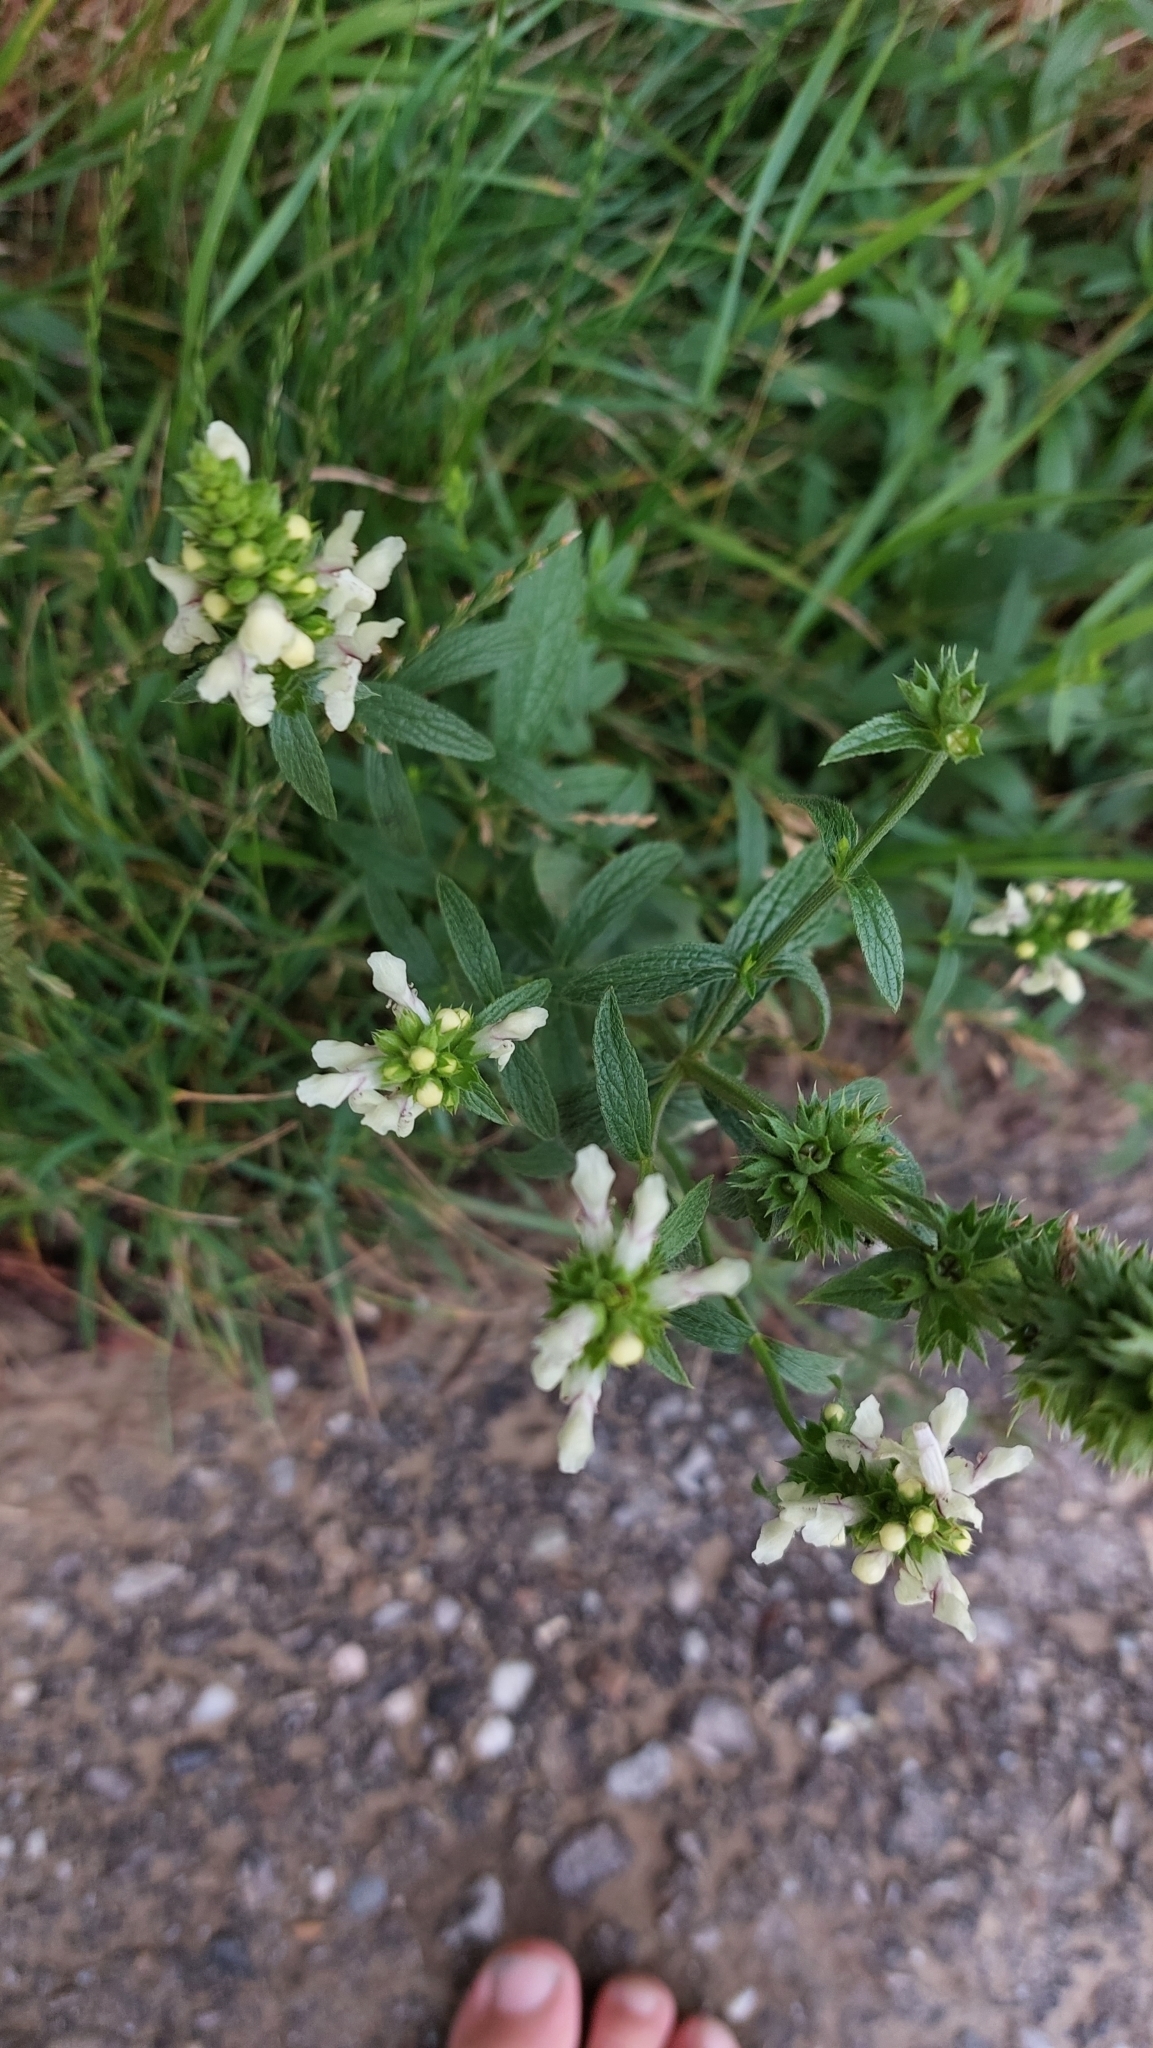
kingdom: Plantae
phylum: Tracheophyta
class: Magnoliopsida
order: Lamiales
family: Lamiaceae
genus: Stachys
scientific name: Stachys recta
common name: Perennial yellow-woundwort
